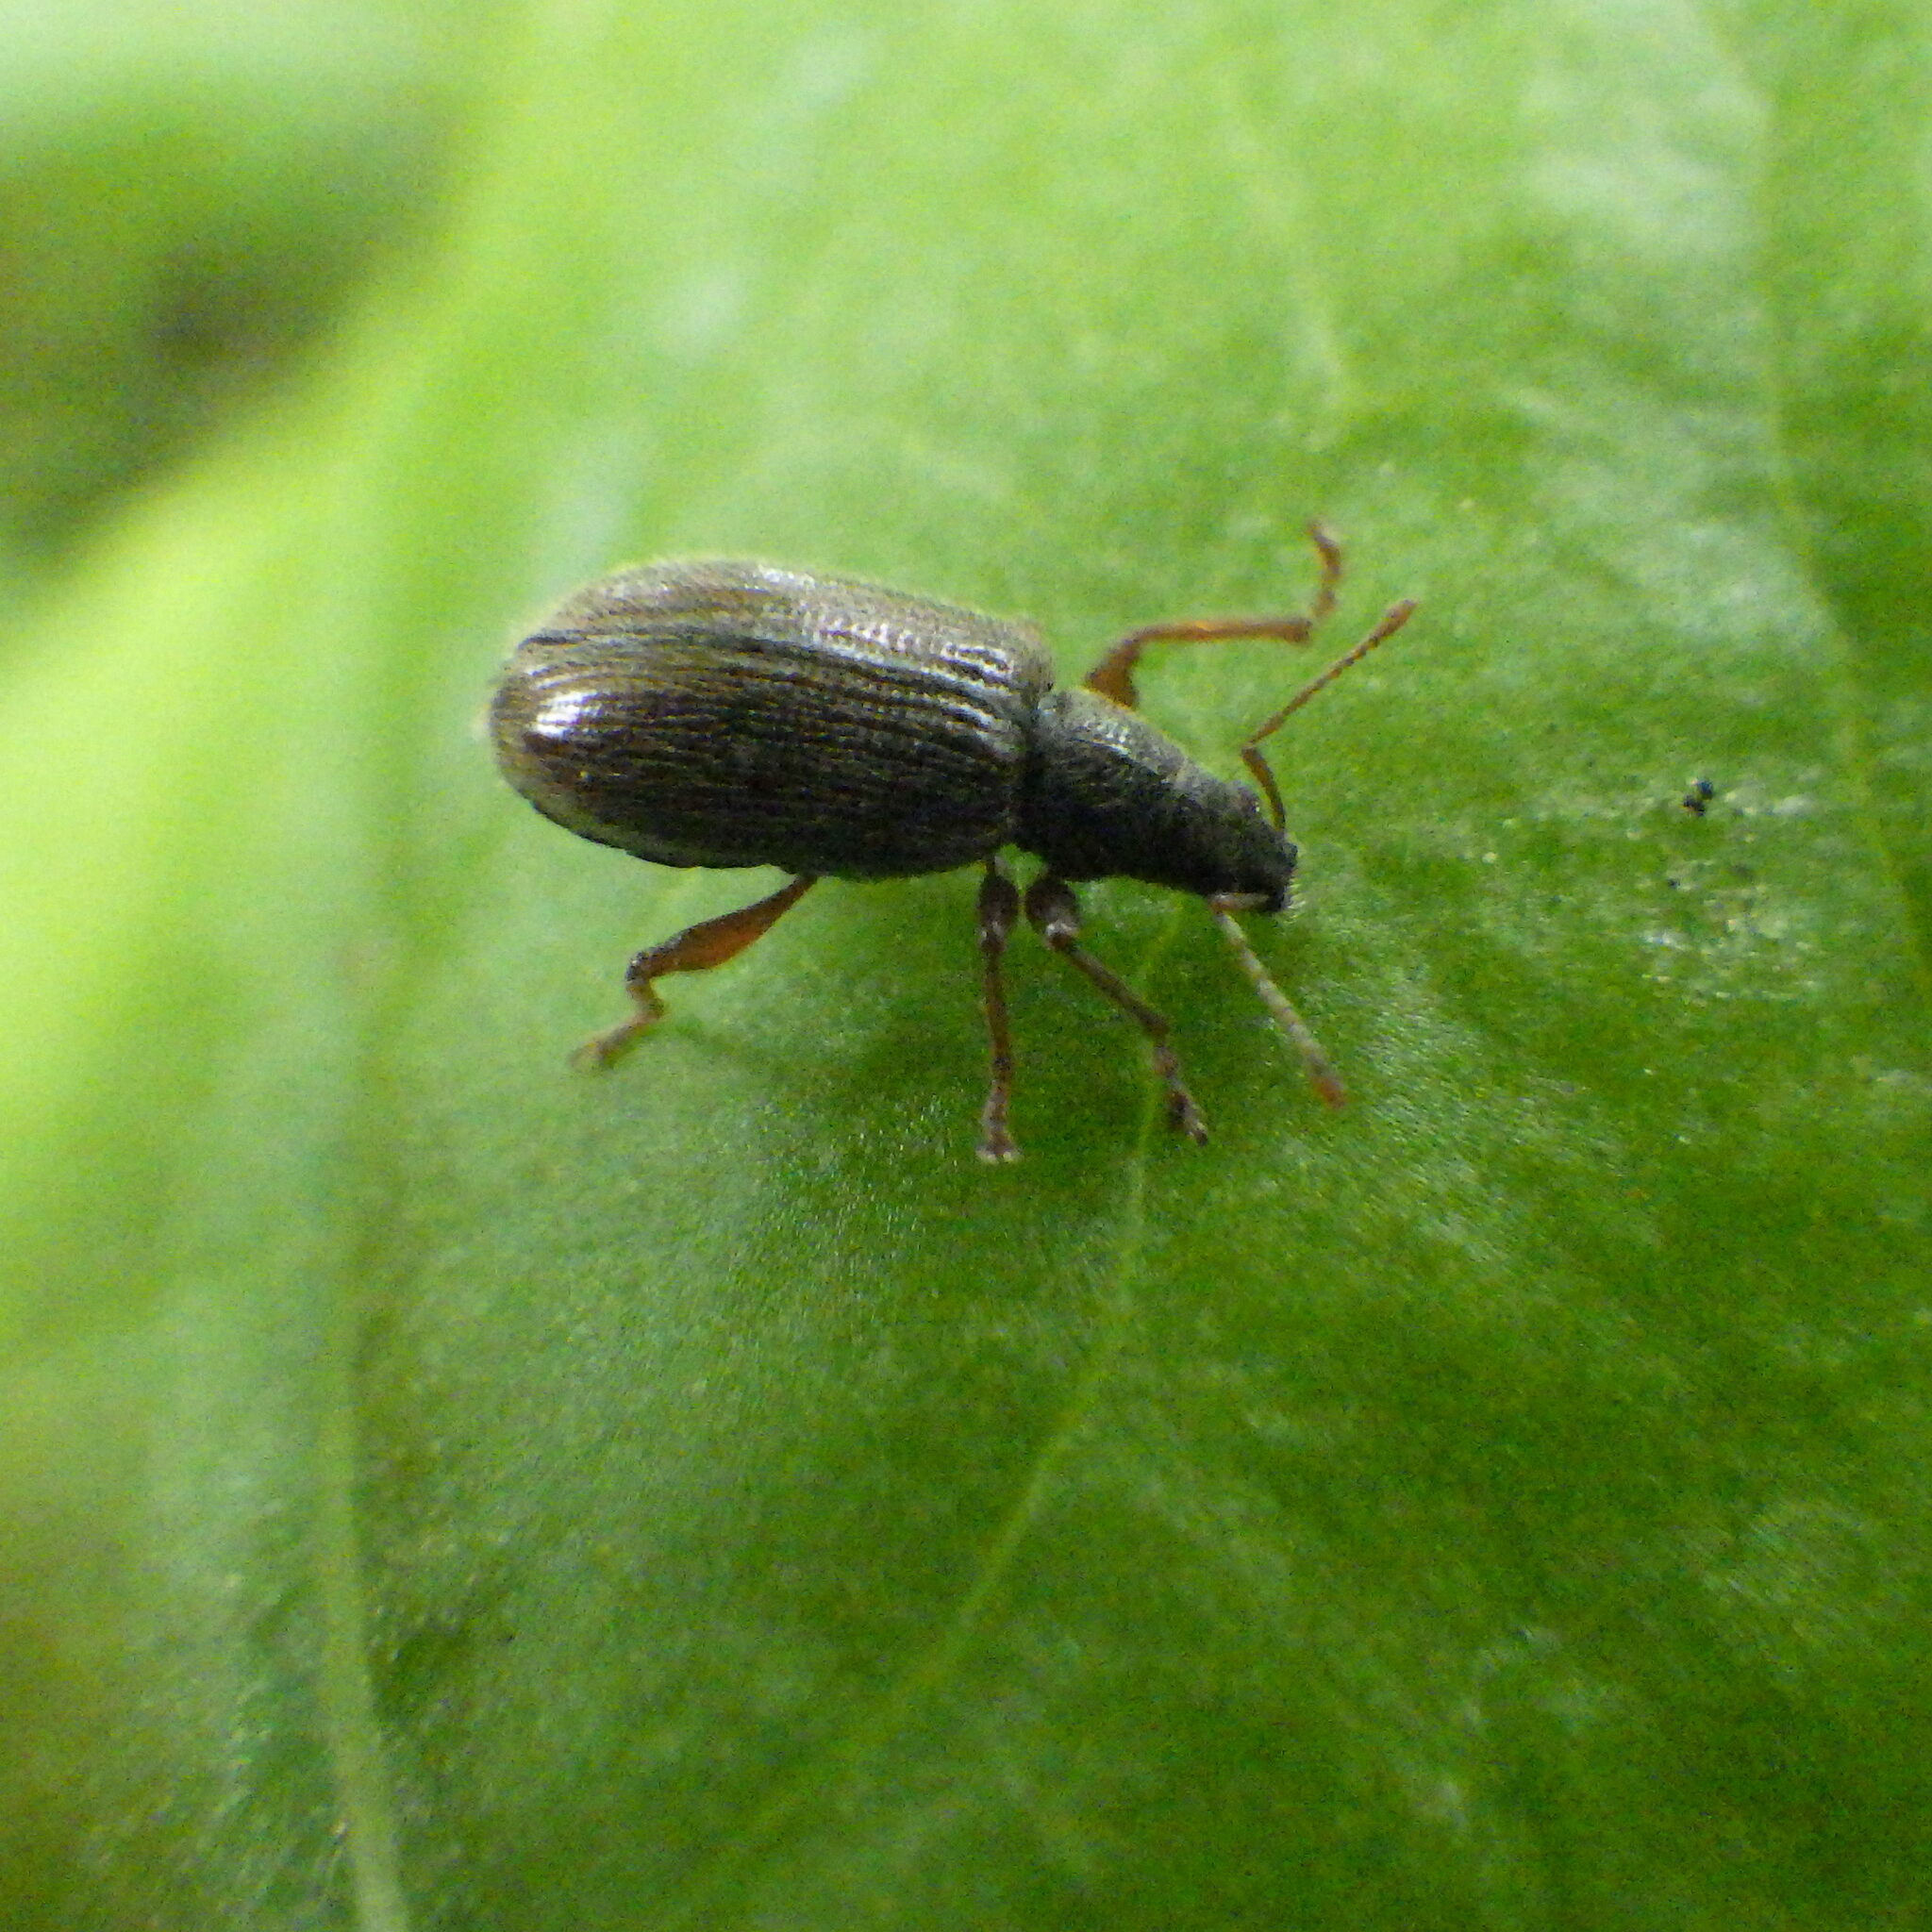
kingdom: Animalia
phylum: Arthropoda
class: Insecta
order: Coleoptera
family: Curculionidae
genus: Phyllobius
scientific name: Phyllobius oblongus
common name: Brown leaf weevil
